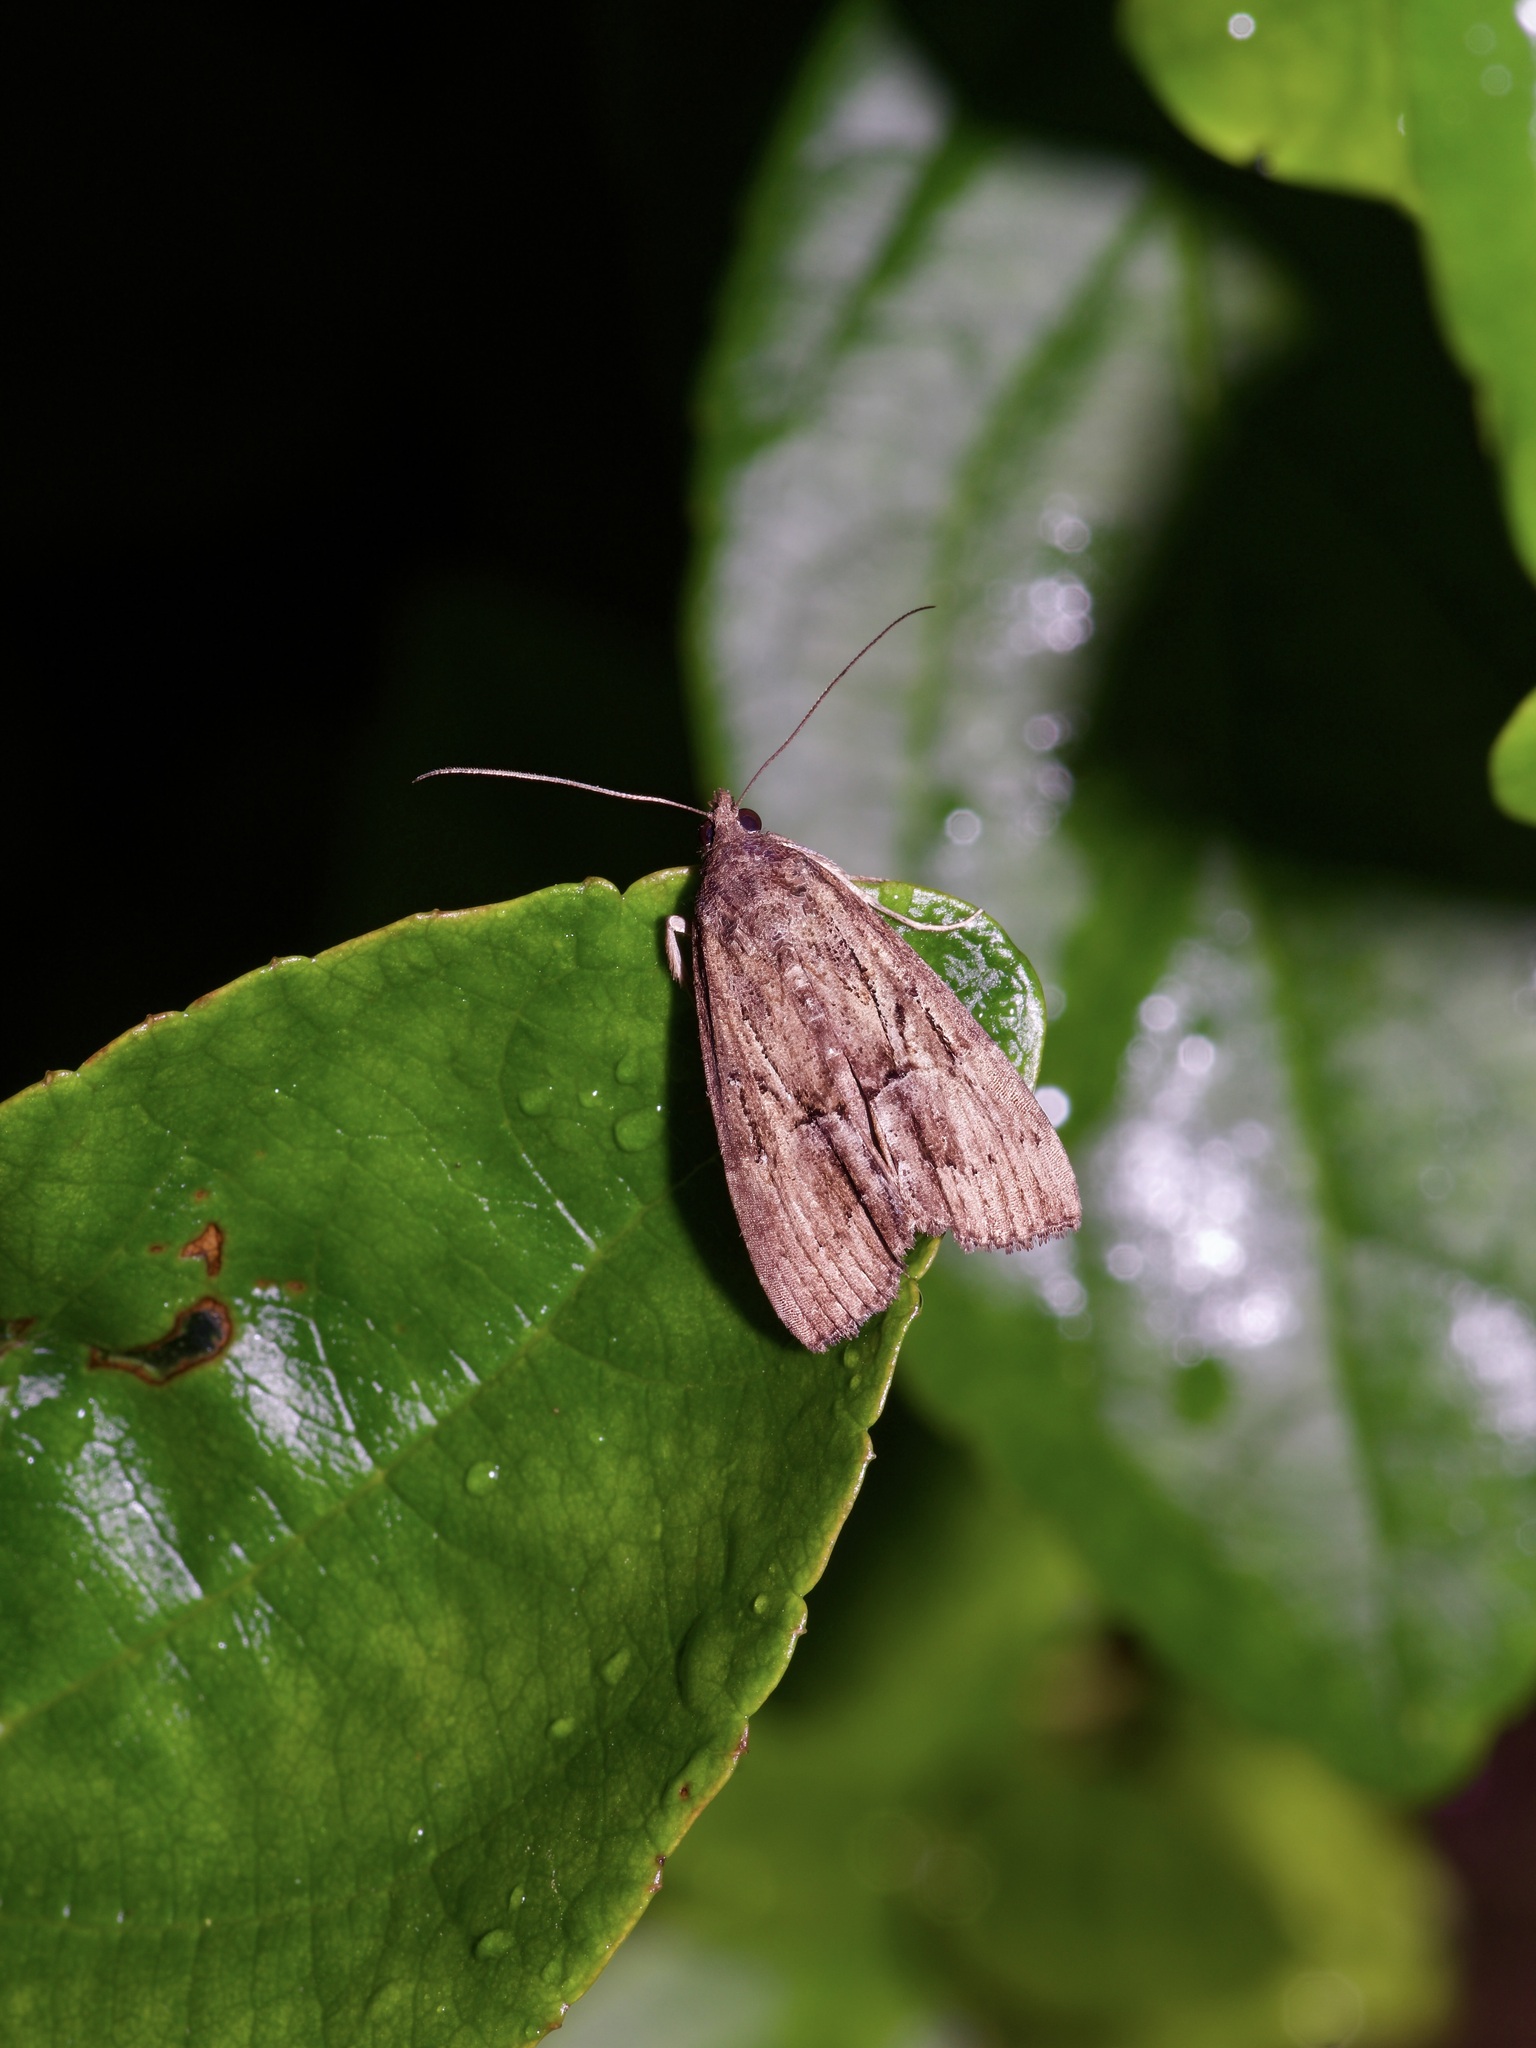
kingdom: Animalia
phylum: Arthropoda
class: Insecta
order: Lepidoptera
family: Erebidae
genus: Hypena
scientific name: Hypena scabra
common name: Green cloverworm
